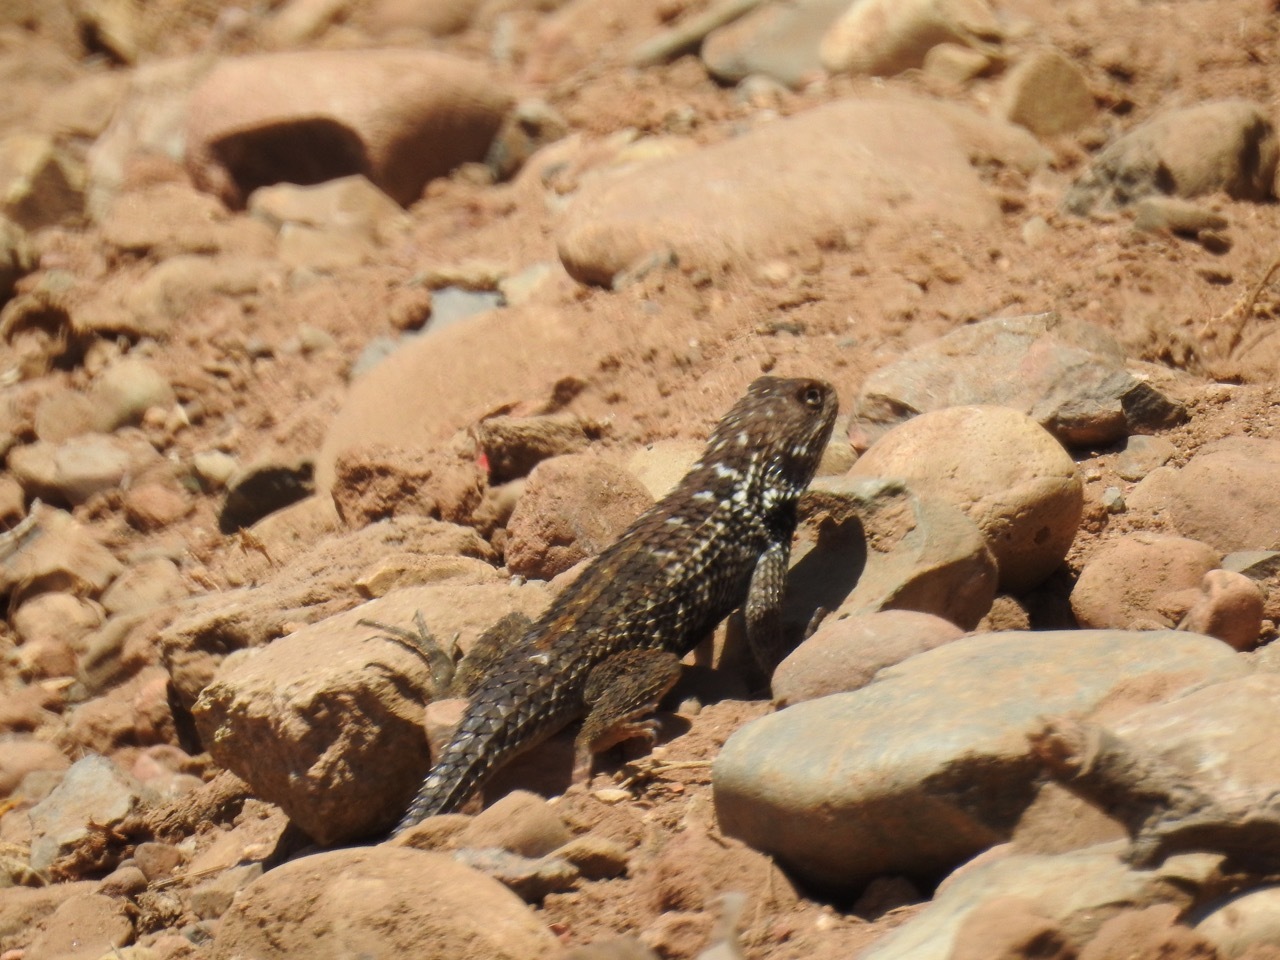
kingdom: Animalia
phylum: Chordata
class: Squamata
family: Phrynosomatidae
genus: Sceloporus
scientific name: Sceloporus zosteromus
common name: Baja spiny lizard
